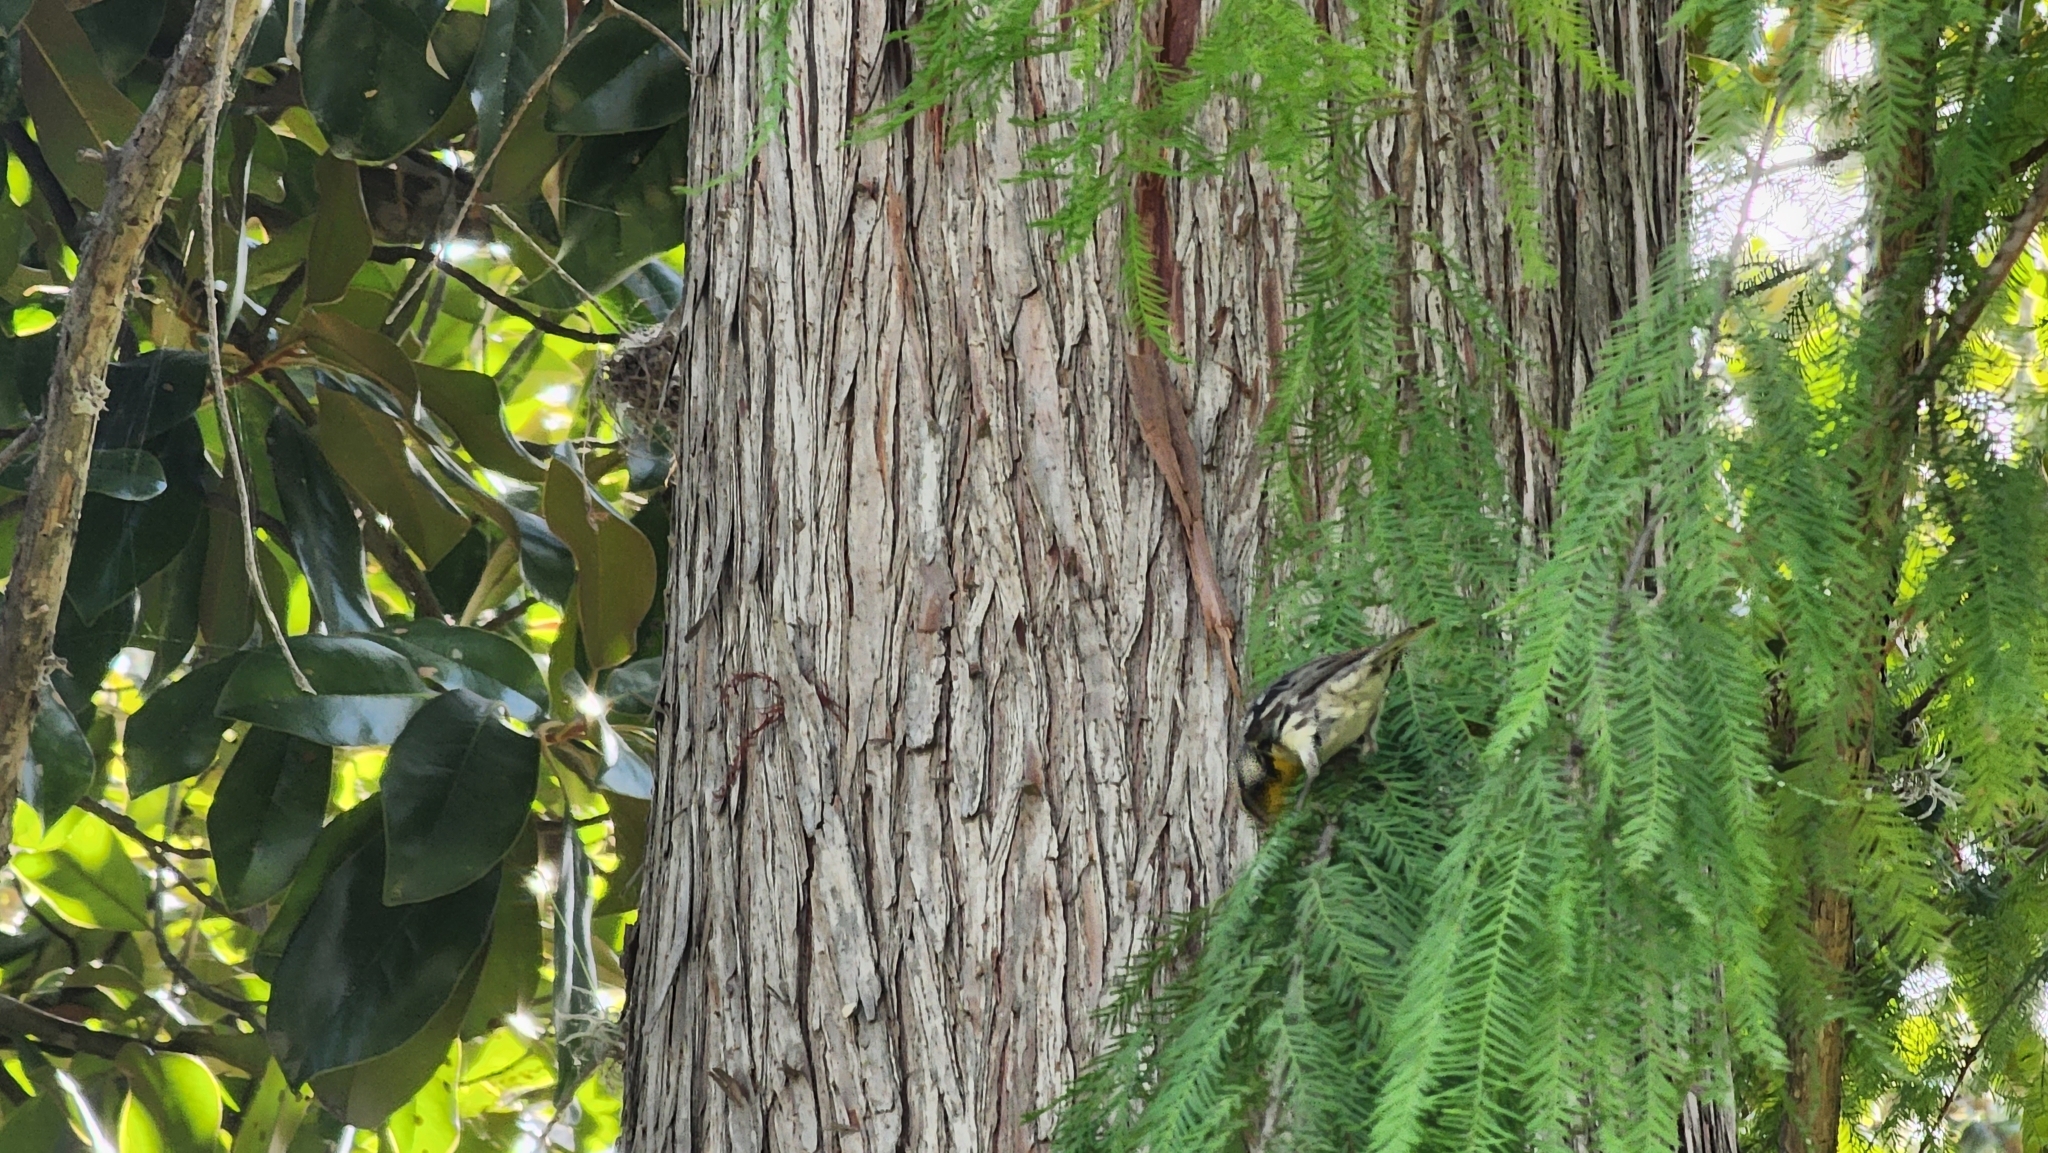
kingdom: Animalia
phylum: Chordata
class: Aves
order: Passeriformes
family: Parulidae
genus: Setophaga
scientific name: Setophaga dominica
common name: Yellow-throated warbler
